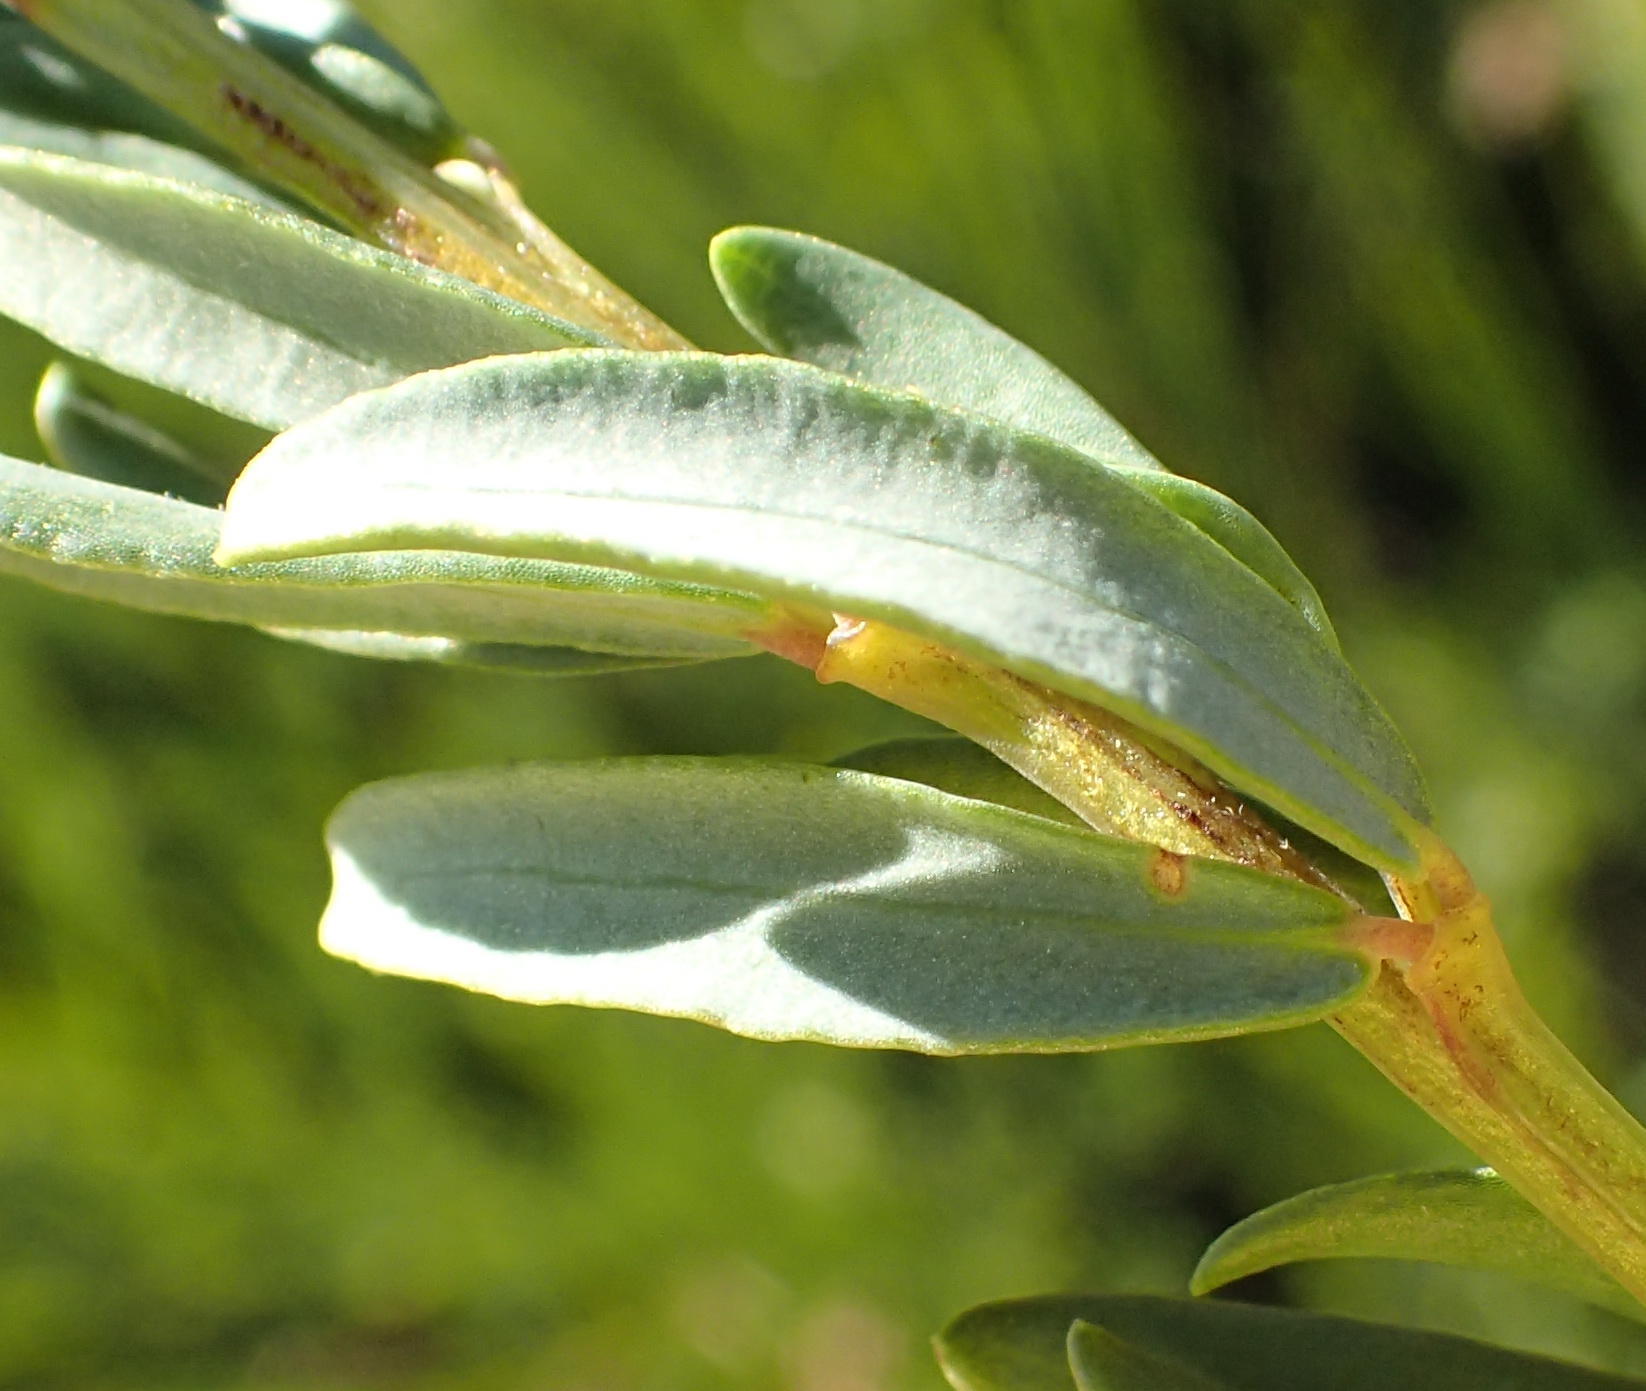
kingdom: Plantae
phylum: Tracheophyta
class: Magnoliopsida
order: Fabales
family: Fabaceae
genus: Cyclopia
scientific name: Cyclopia subternata
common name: Honeybush tea
